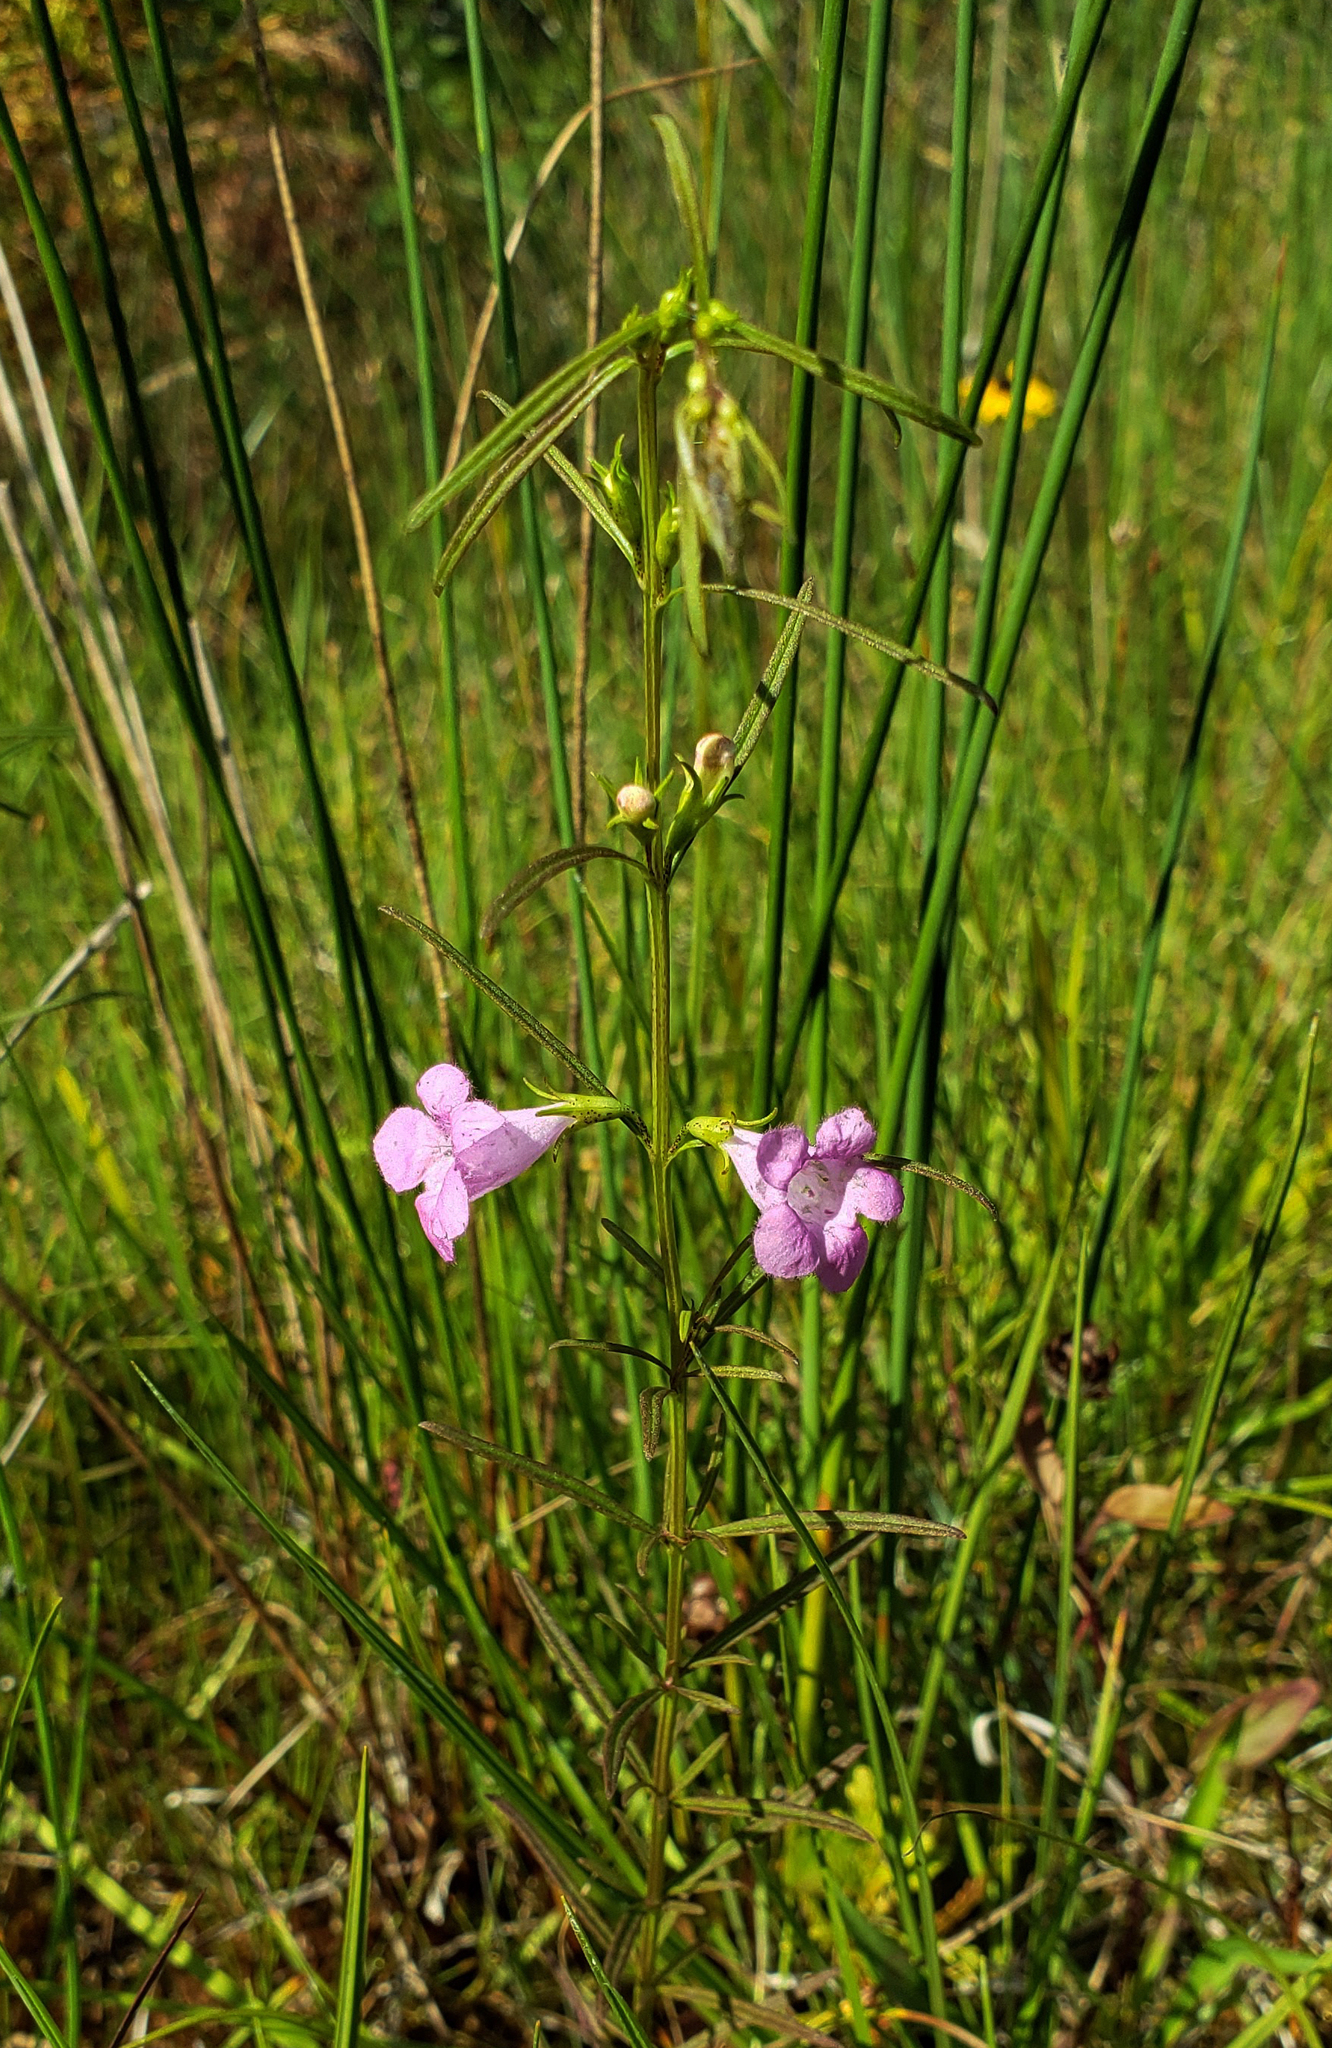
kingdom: Plantae
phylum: Tracheophyta
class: Magnoliopsida
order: Lamiales
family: Orobanchaceae
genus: Agalinis
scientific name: Agalinis purpurea
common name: Purple false foxglove
